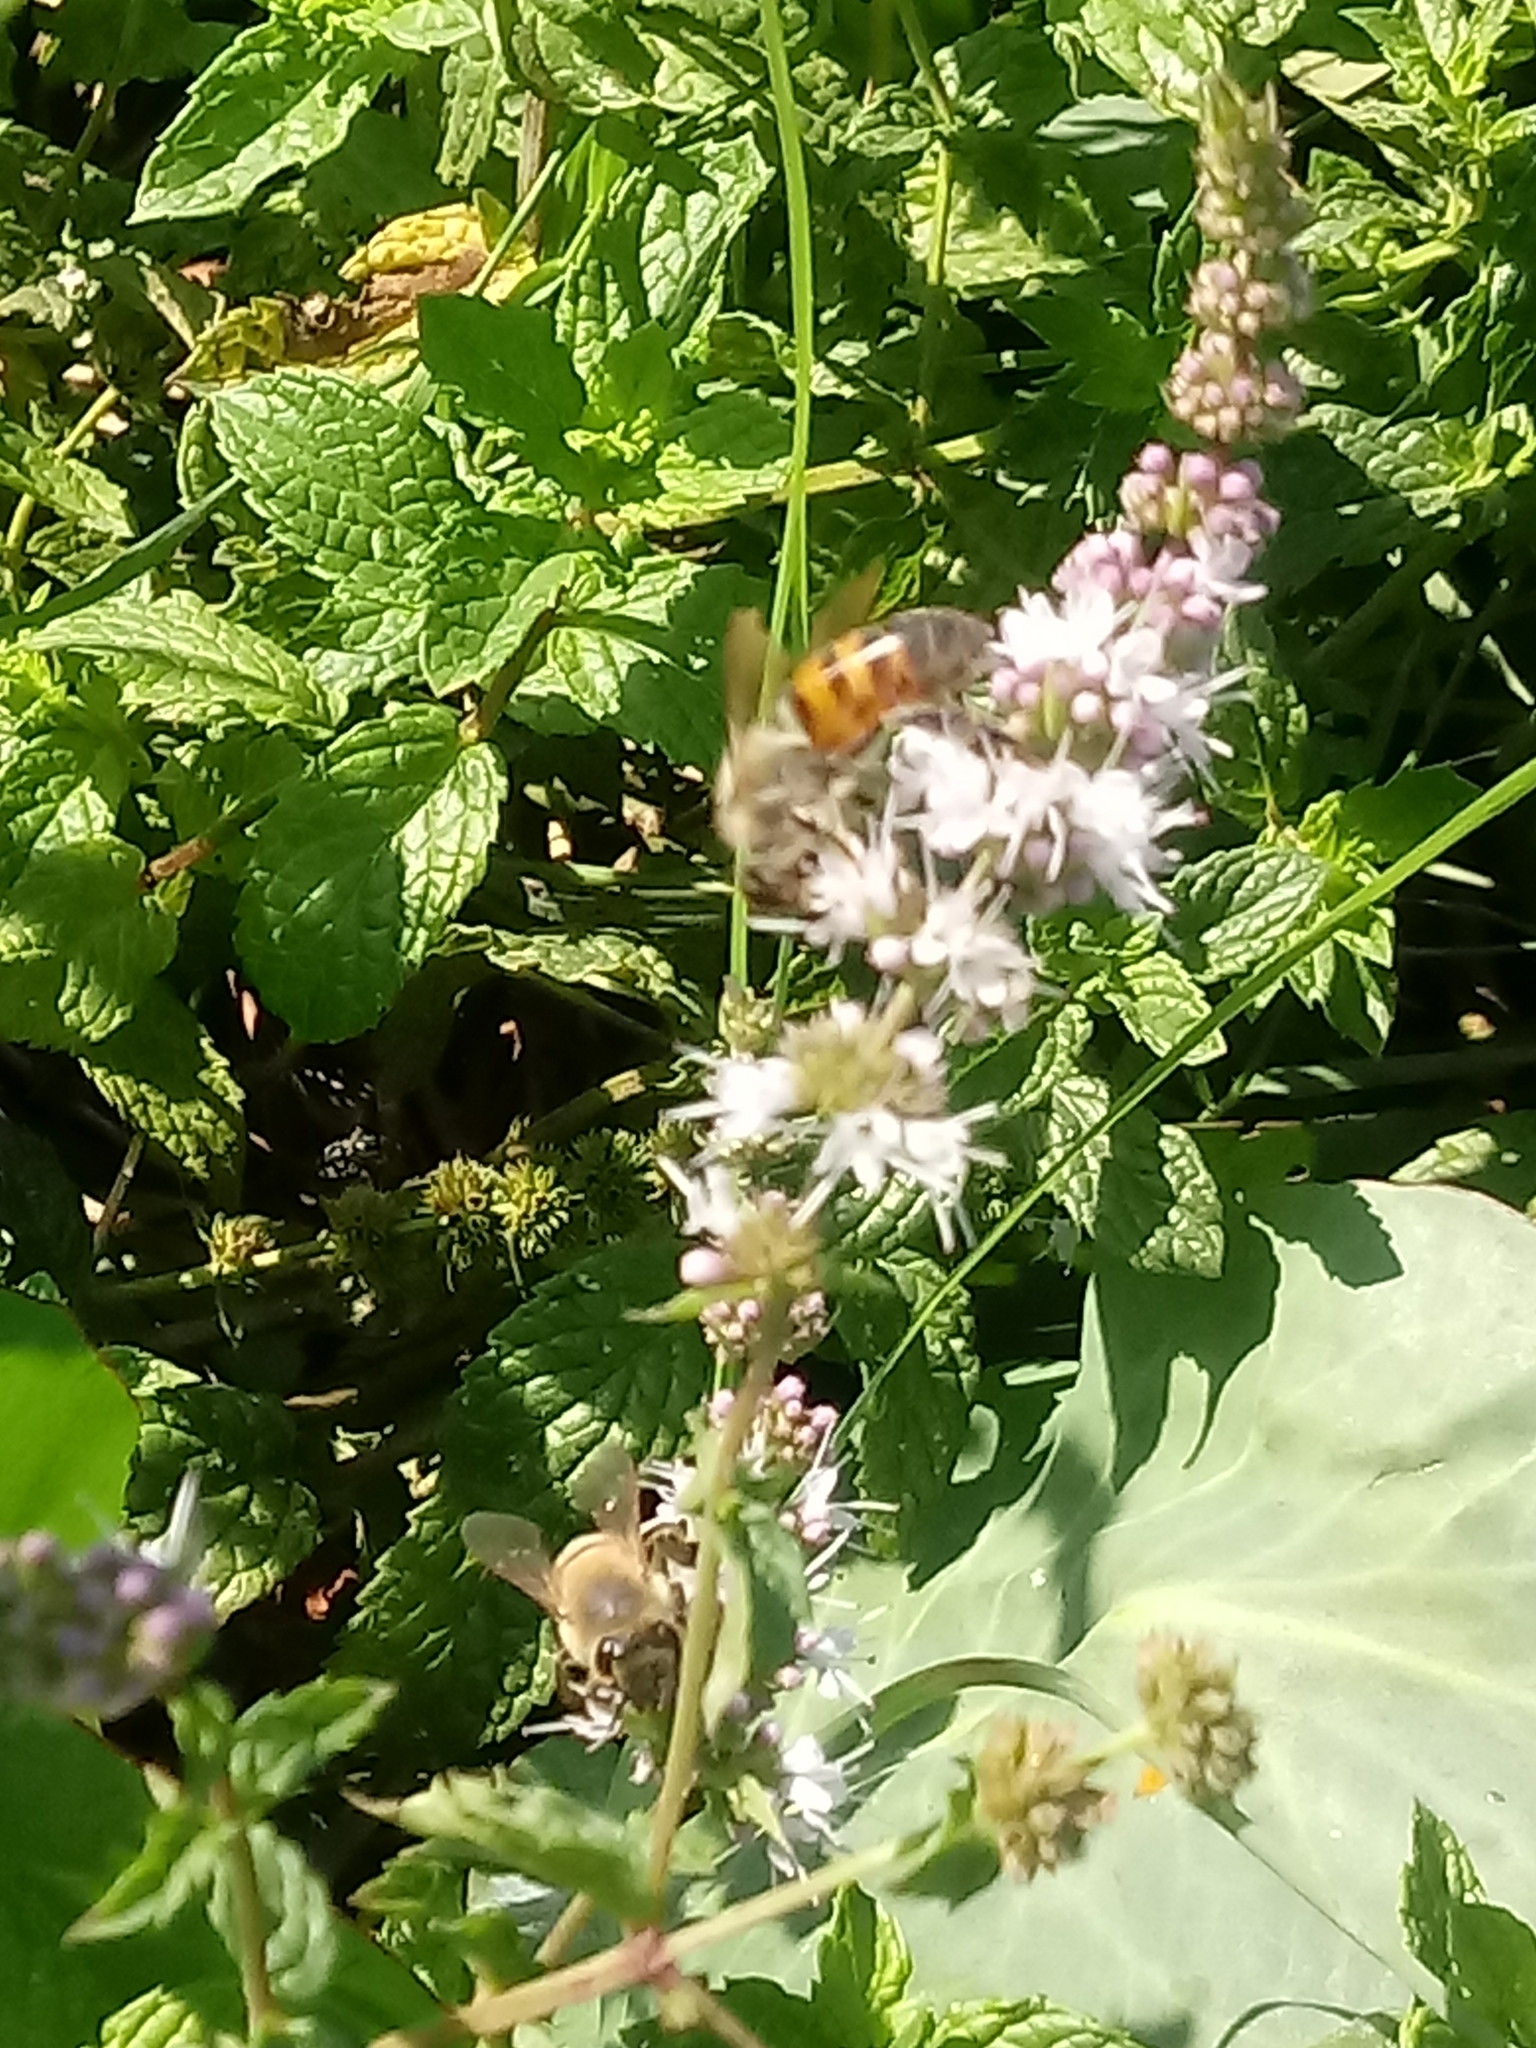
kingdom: Animalia
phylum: Arthropoda
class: Insecta
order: Hymenoptera
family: Apidae
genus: Apis
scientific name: Apis mellifera
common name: Honey bee
